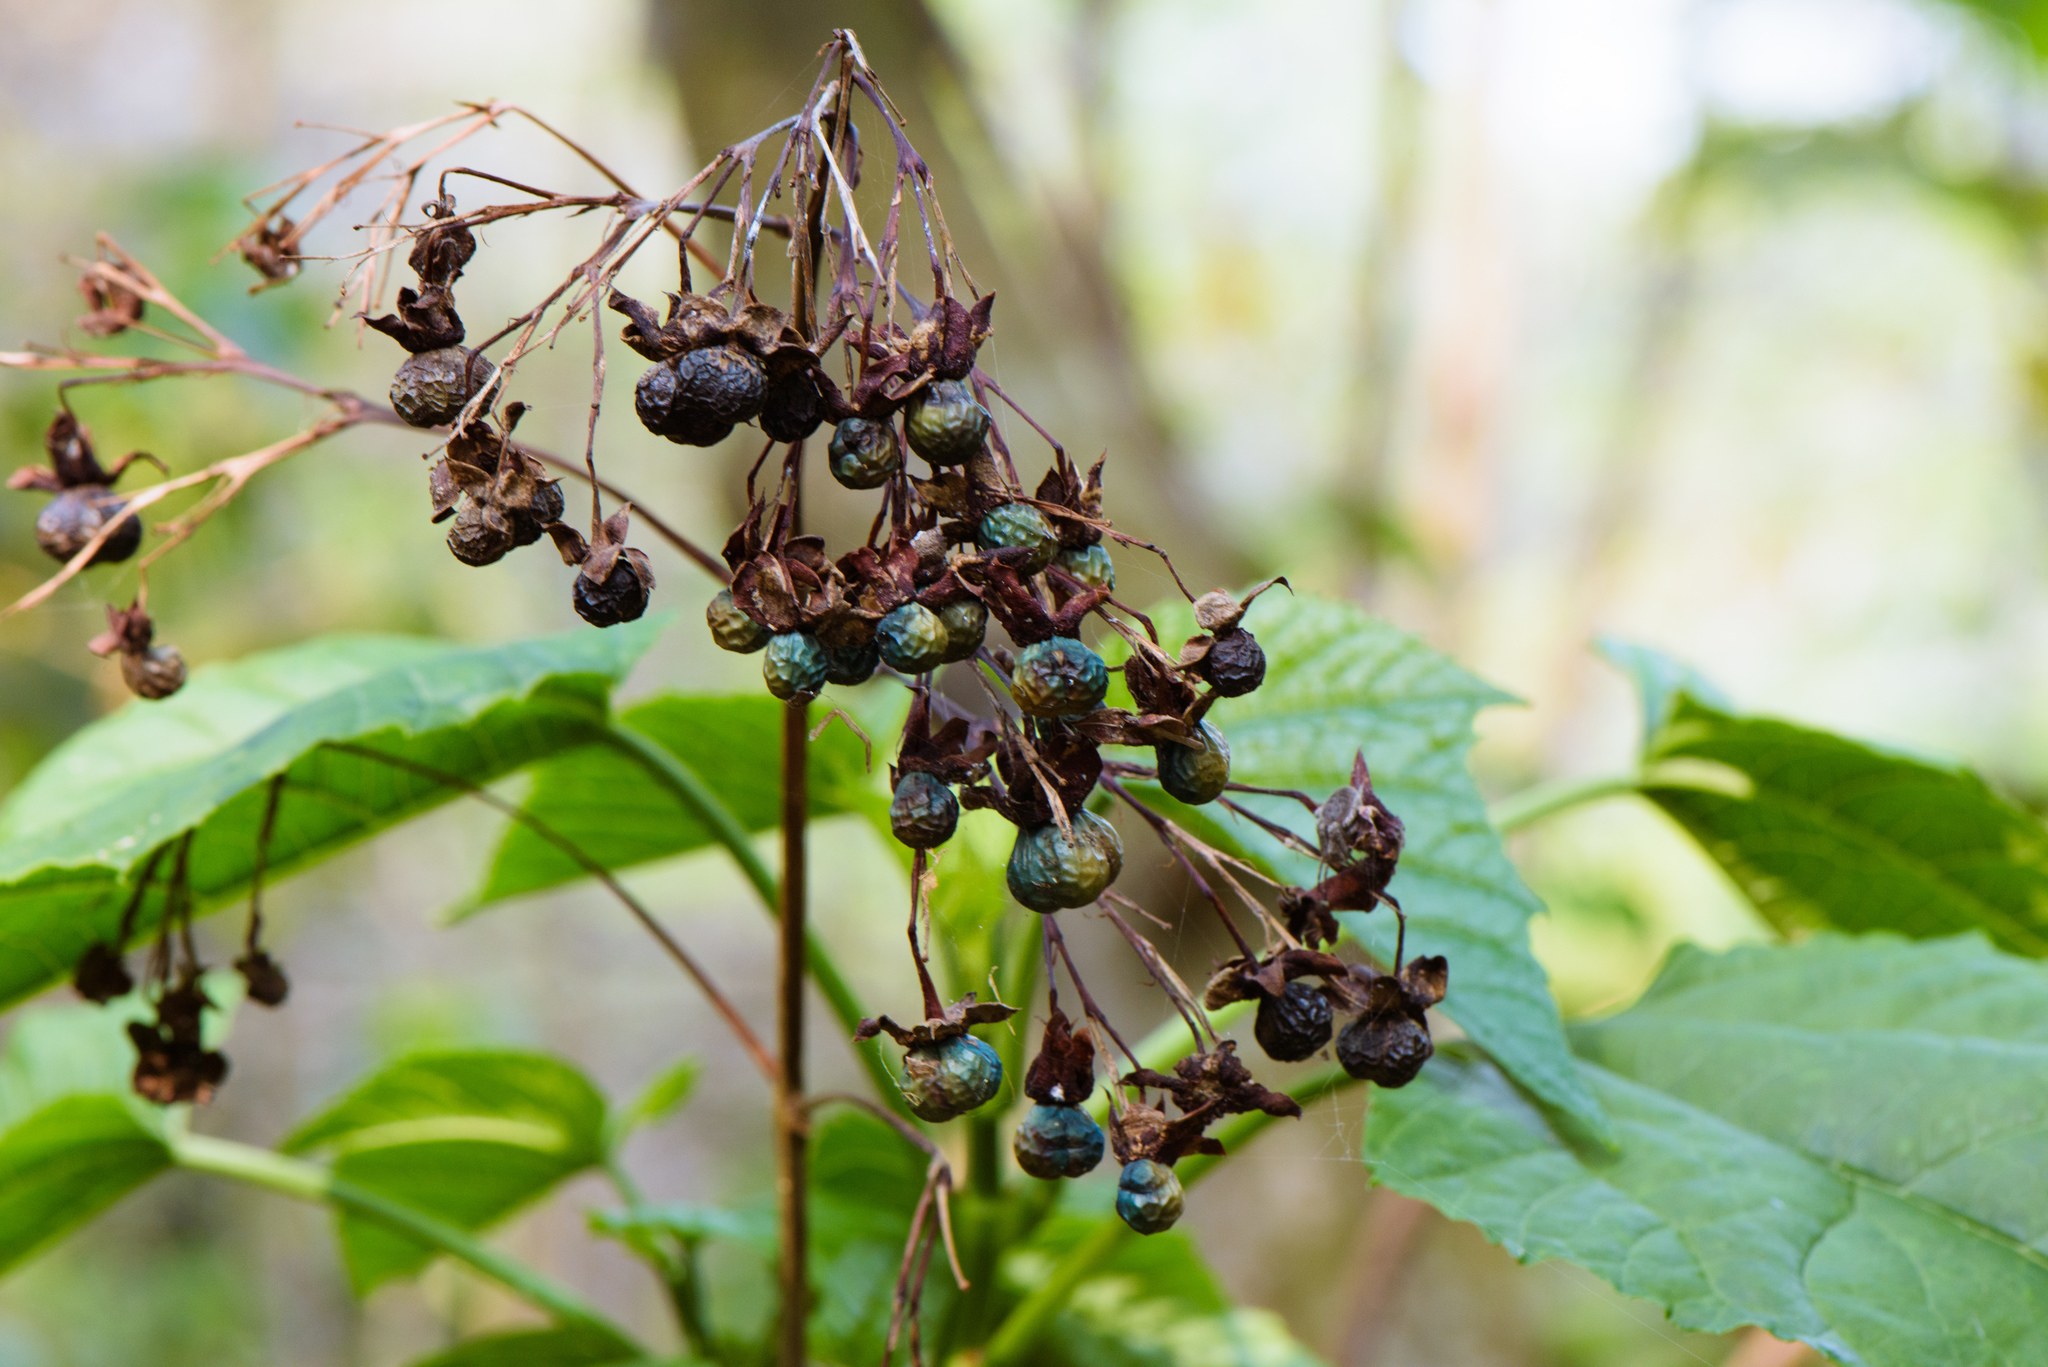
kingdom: Plantae
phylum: Tracheophyta
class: Magnoliopsida
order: Lamiales
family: Lamiaceae
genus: Clerodendrum
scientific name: Clerodendrum japonicum
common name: Japanese glorybower
